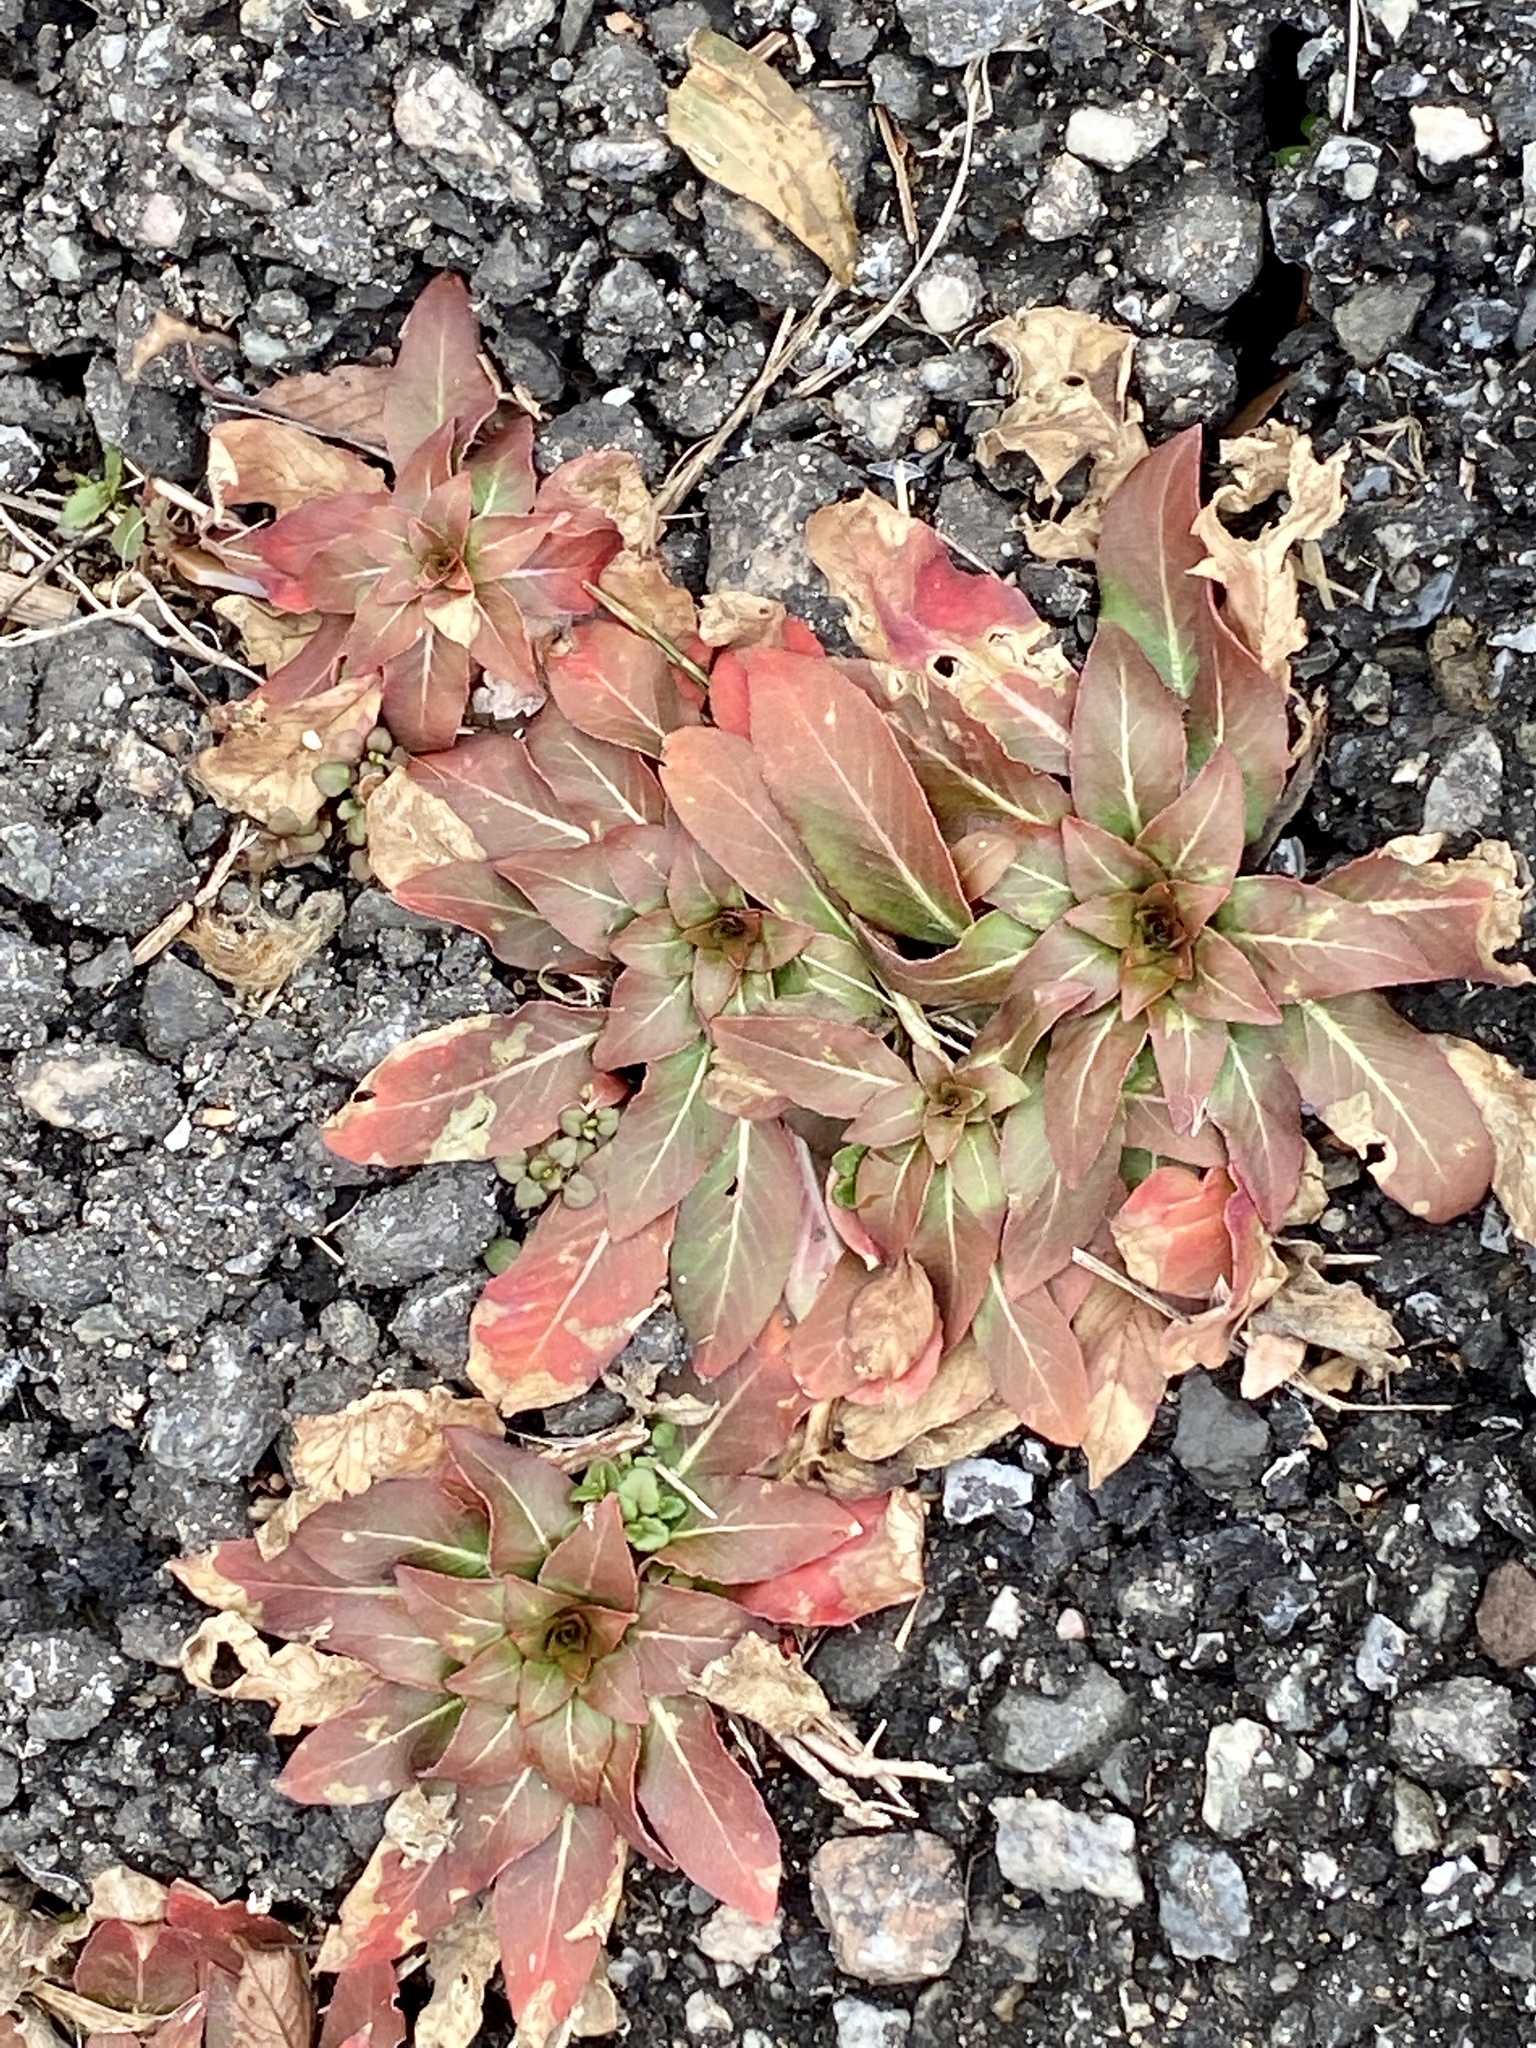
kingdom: Plantae
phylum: Tracheophyta
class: Magnoliopsida
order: Myrtales
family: Onagraceae
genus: Oenothera
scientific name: Oenothera biennis
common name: Common evening-primrose
